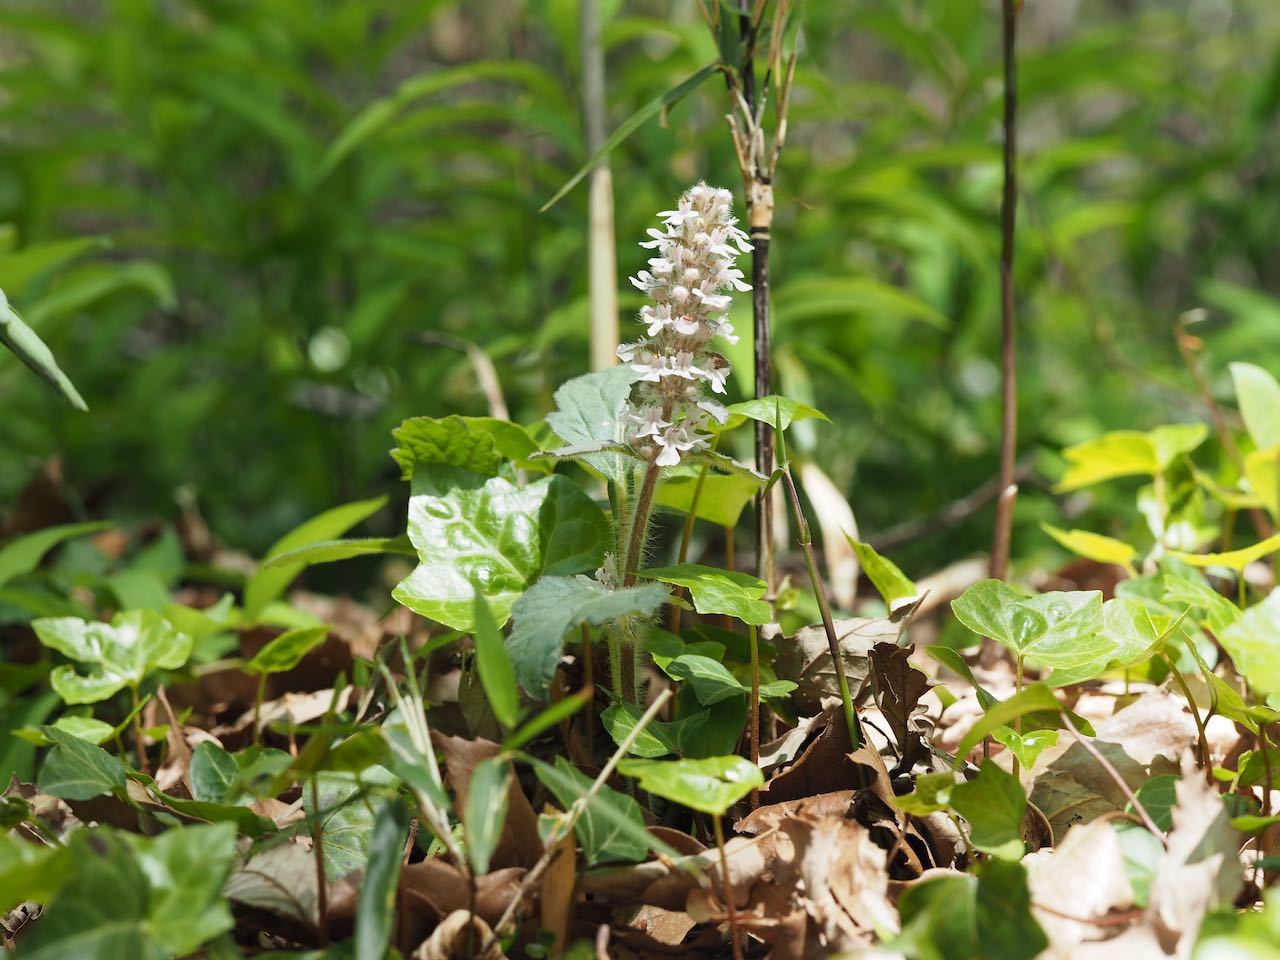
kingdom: Plantae
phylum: Tracheophyta
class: Magnoliopsida
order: Lamiales
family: Lamiaceae
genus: Ajuga
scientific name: Ajuga nipponensis
